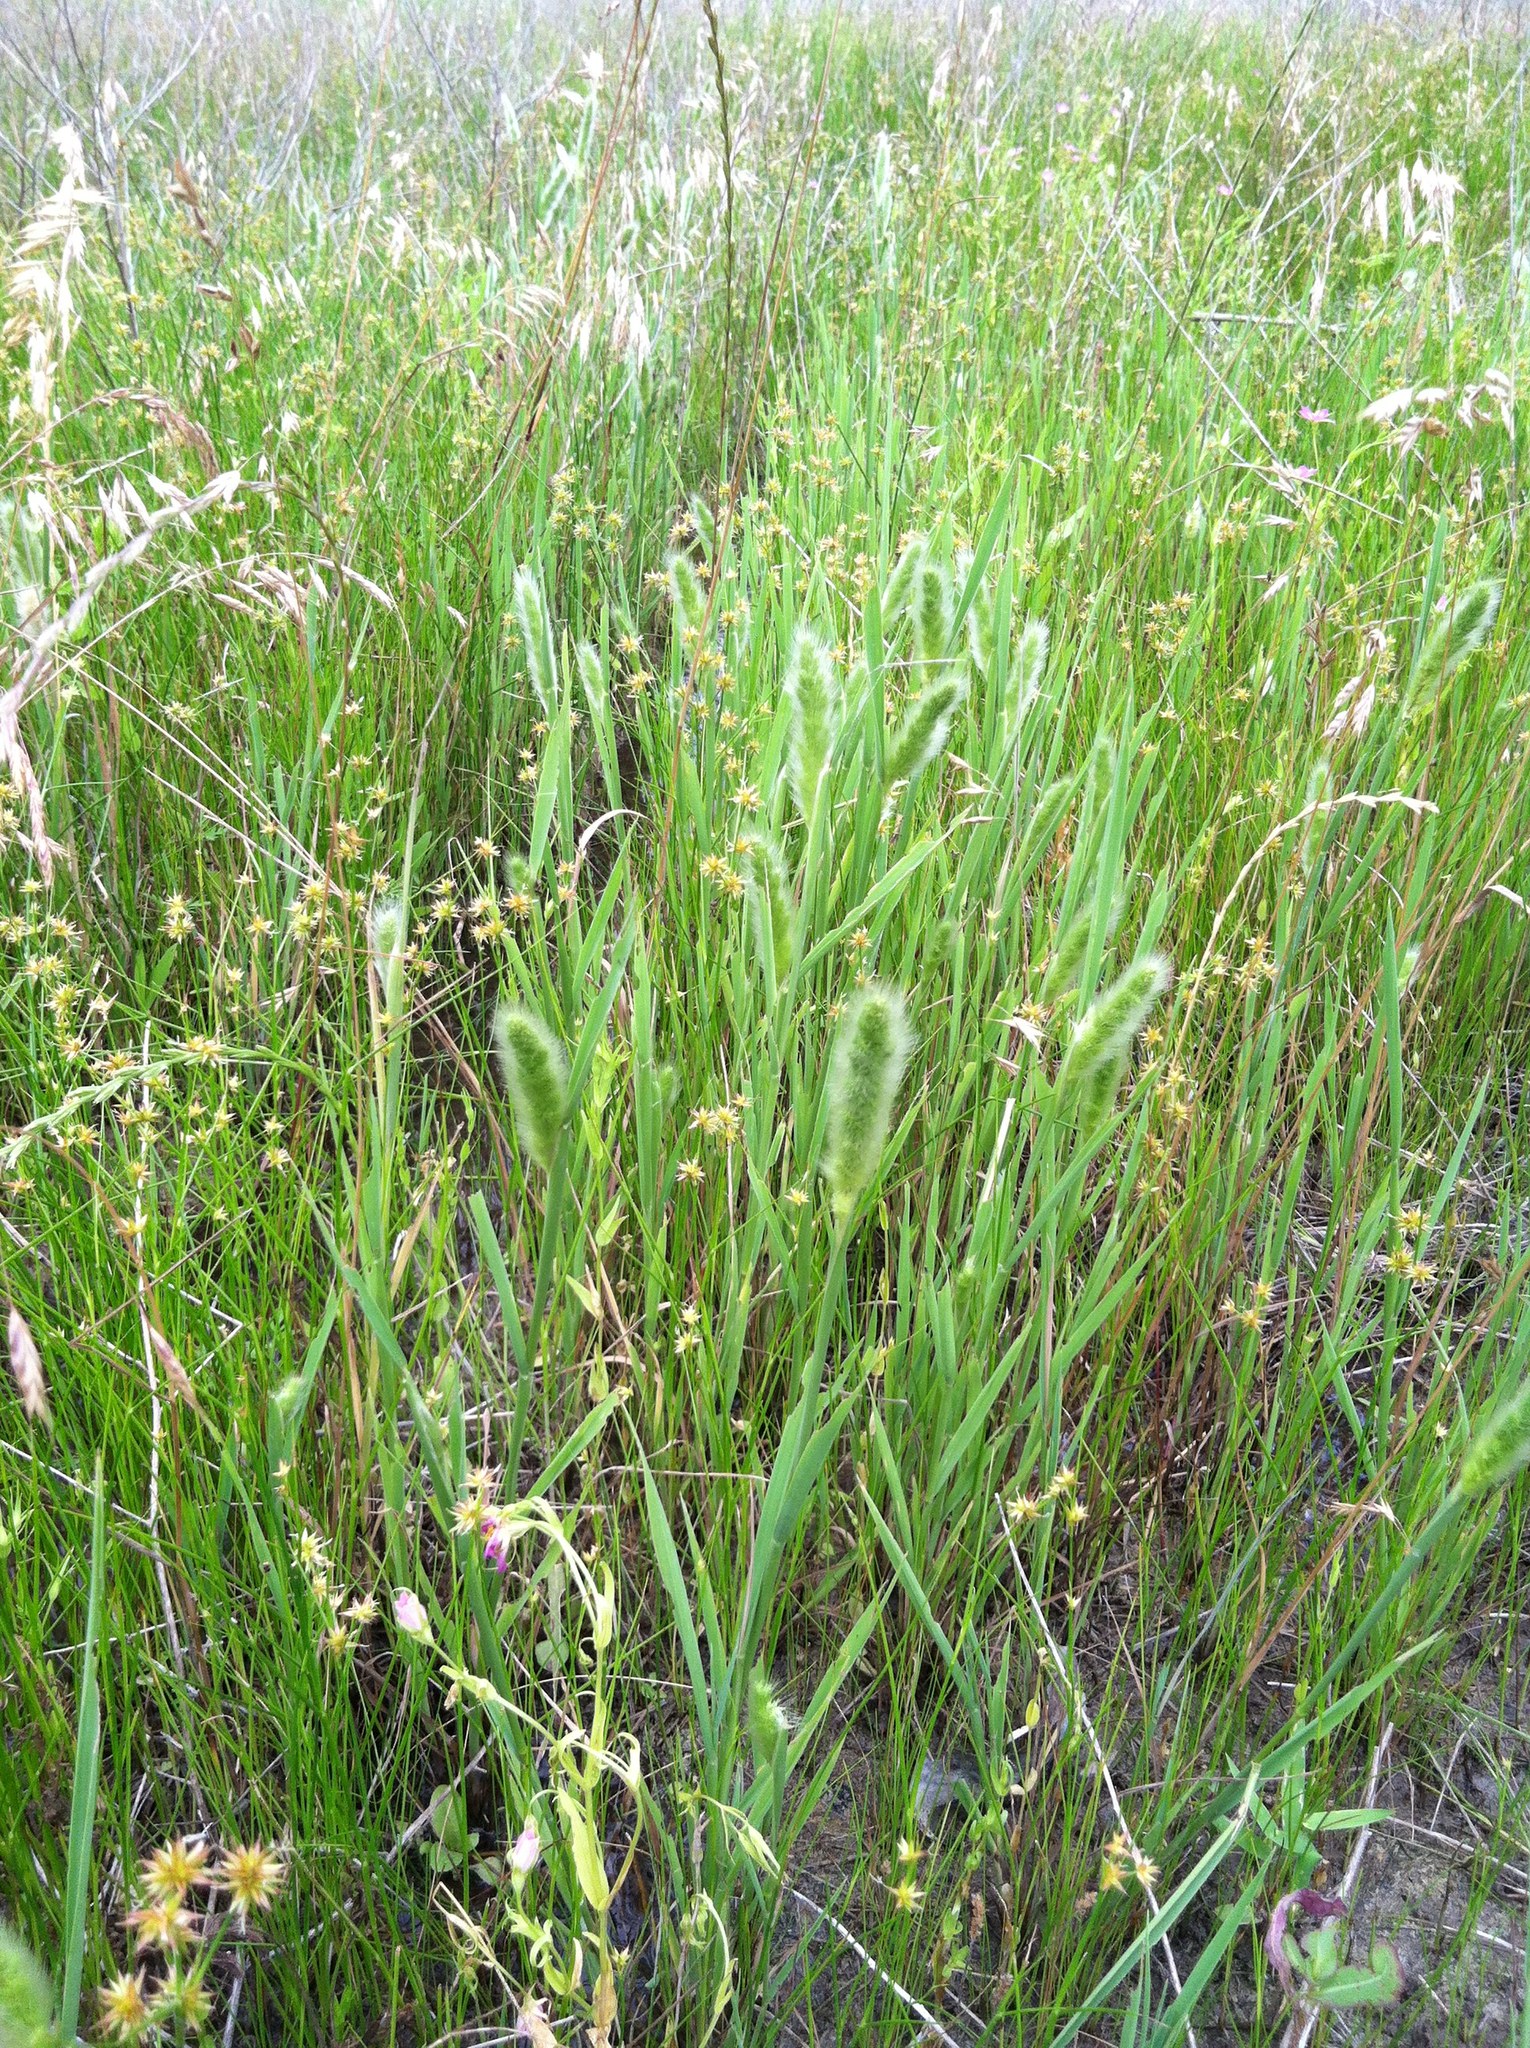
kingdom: Plantae
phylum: Tracheophyta
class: Liliopsida
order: Poales
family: Poaceae
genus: Polypogon
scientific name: Polypogon monspeliensis
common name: Annual rabbitsfoot grass
